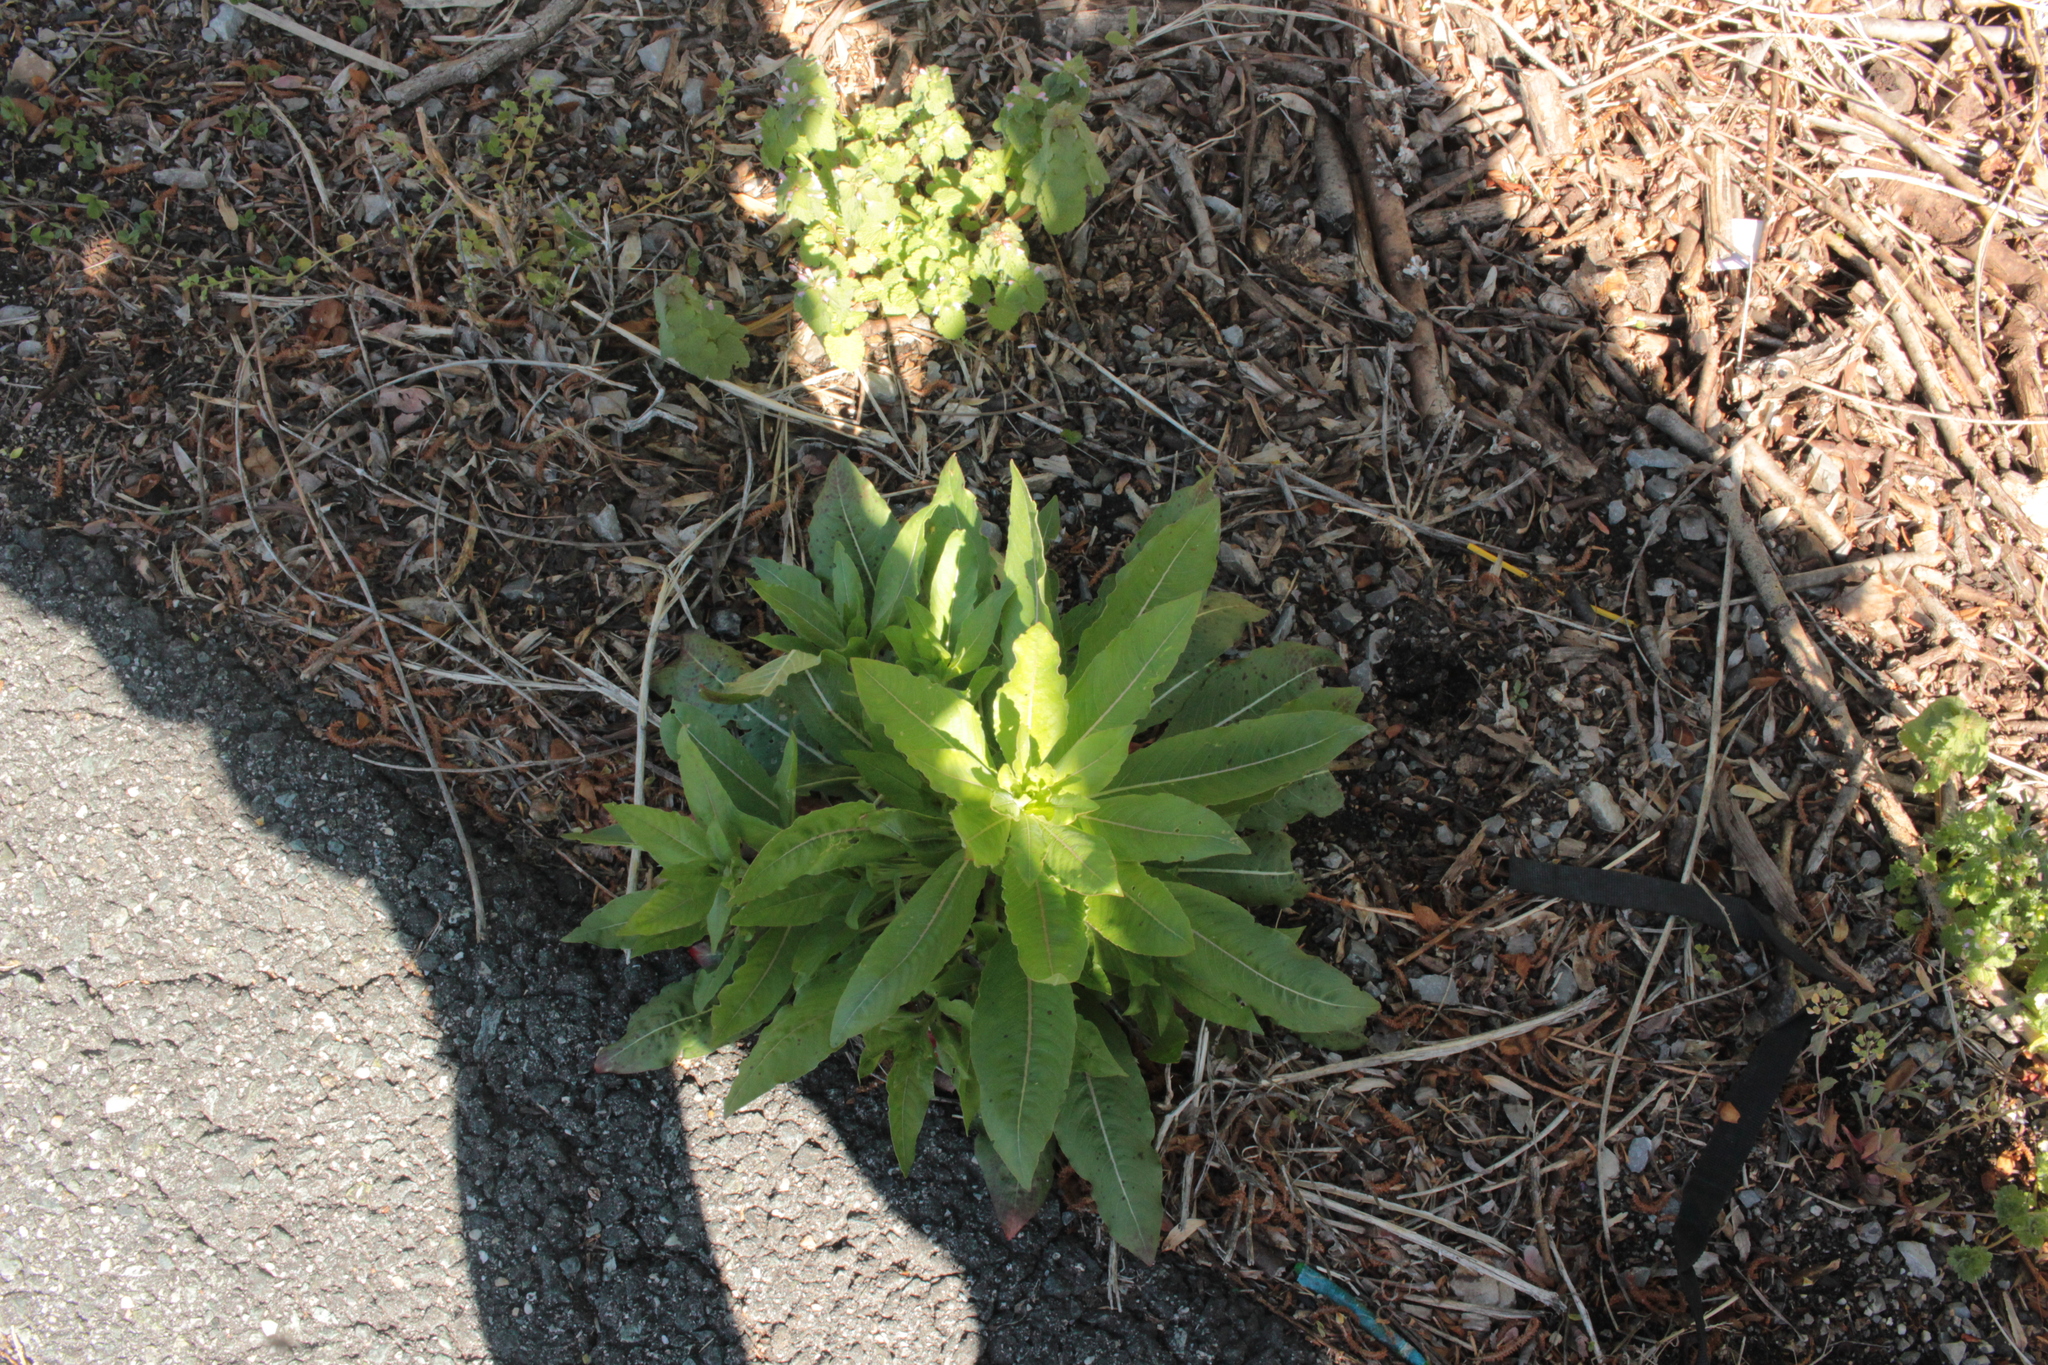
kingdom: Plantae
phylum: Tracheophyta
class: Magnoliopsida
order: Myrtales
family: Onagraceae
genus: Oenothera
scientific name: Oenothera
